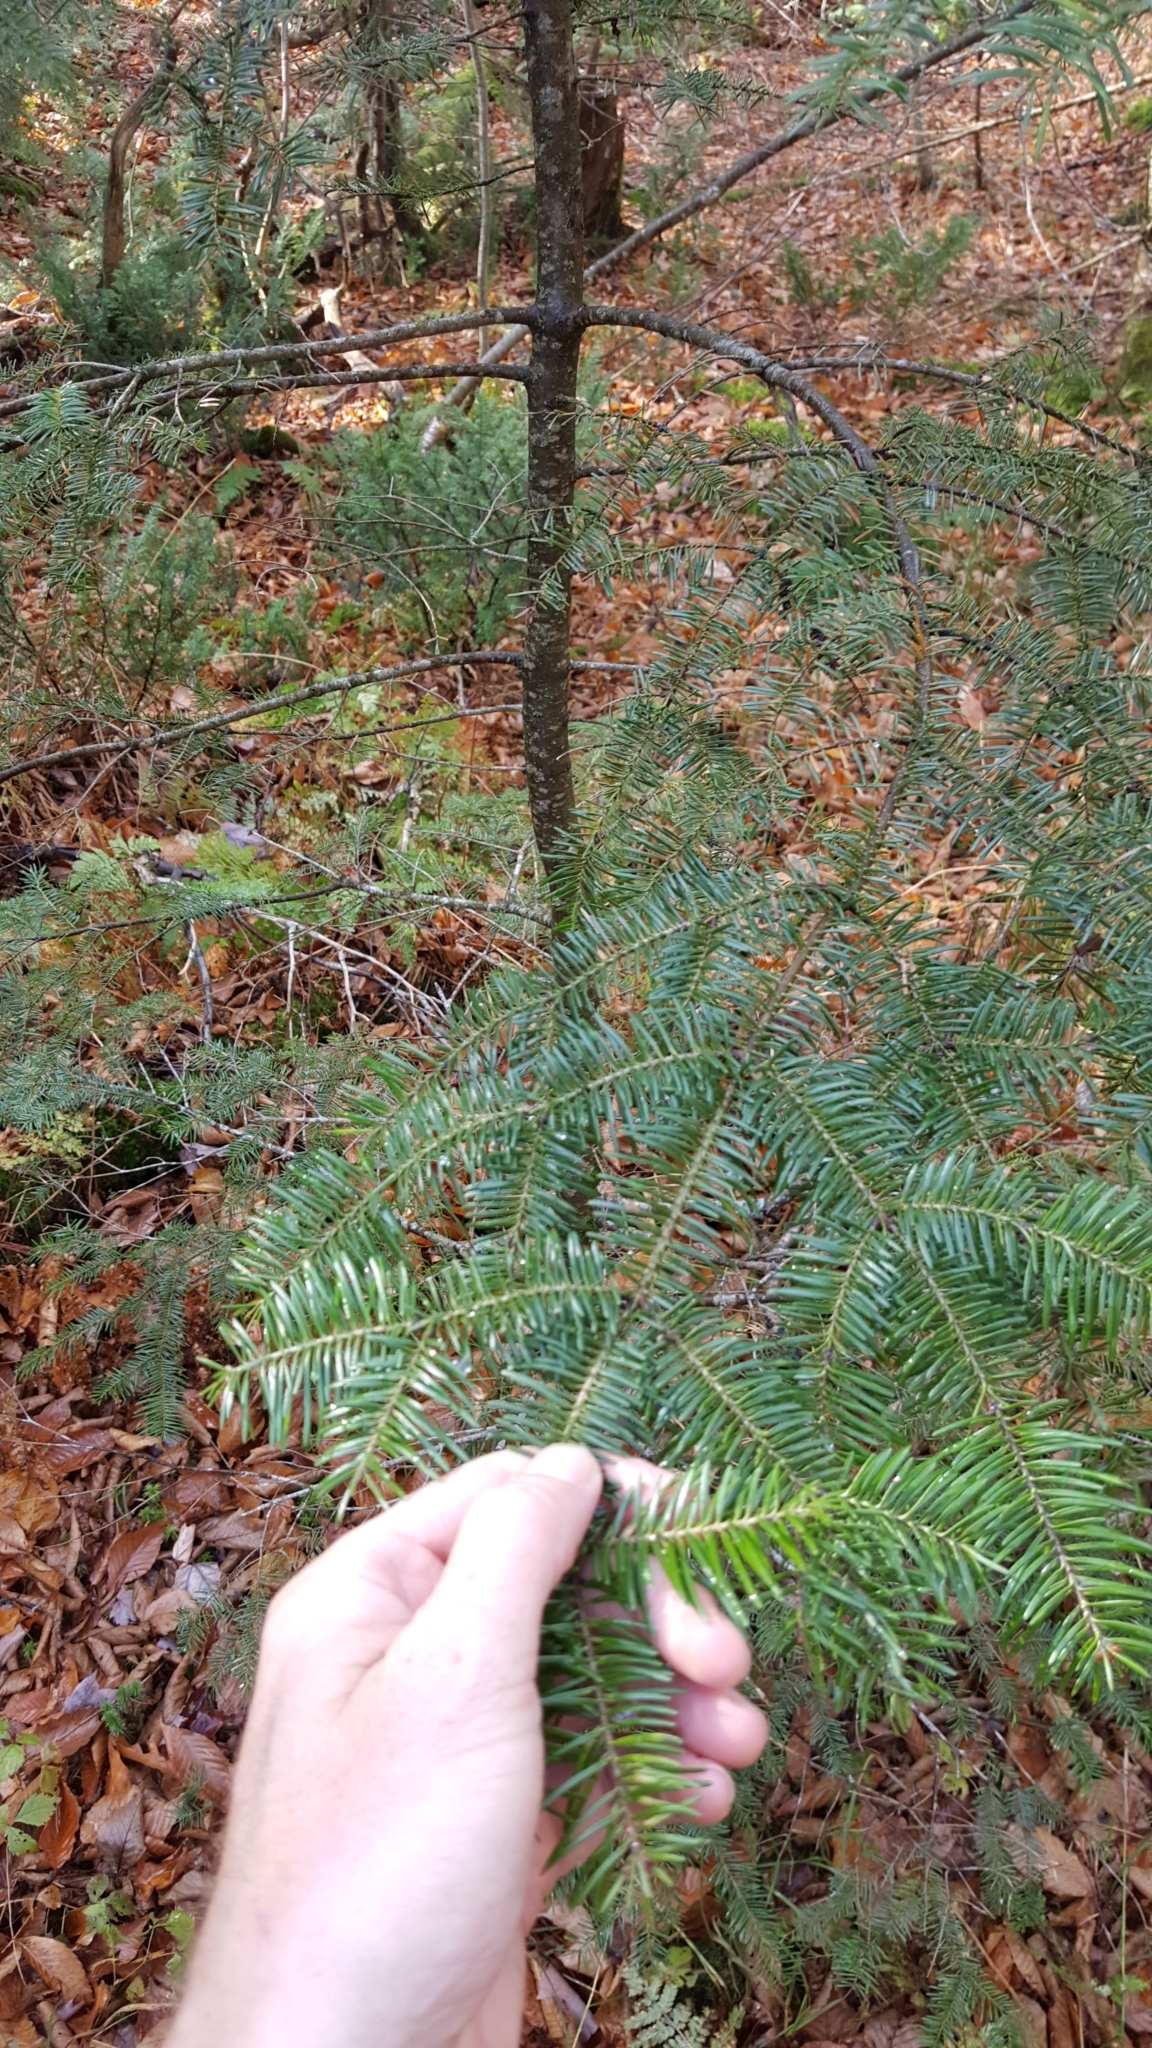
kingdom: Plantae
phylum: Tracheophyta
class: Pinopsida
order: Pinales
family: Pinaceae
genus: Abies
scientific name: Abies balsamea
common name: Balsam fir
